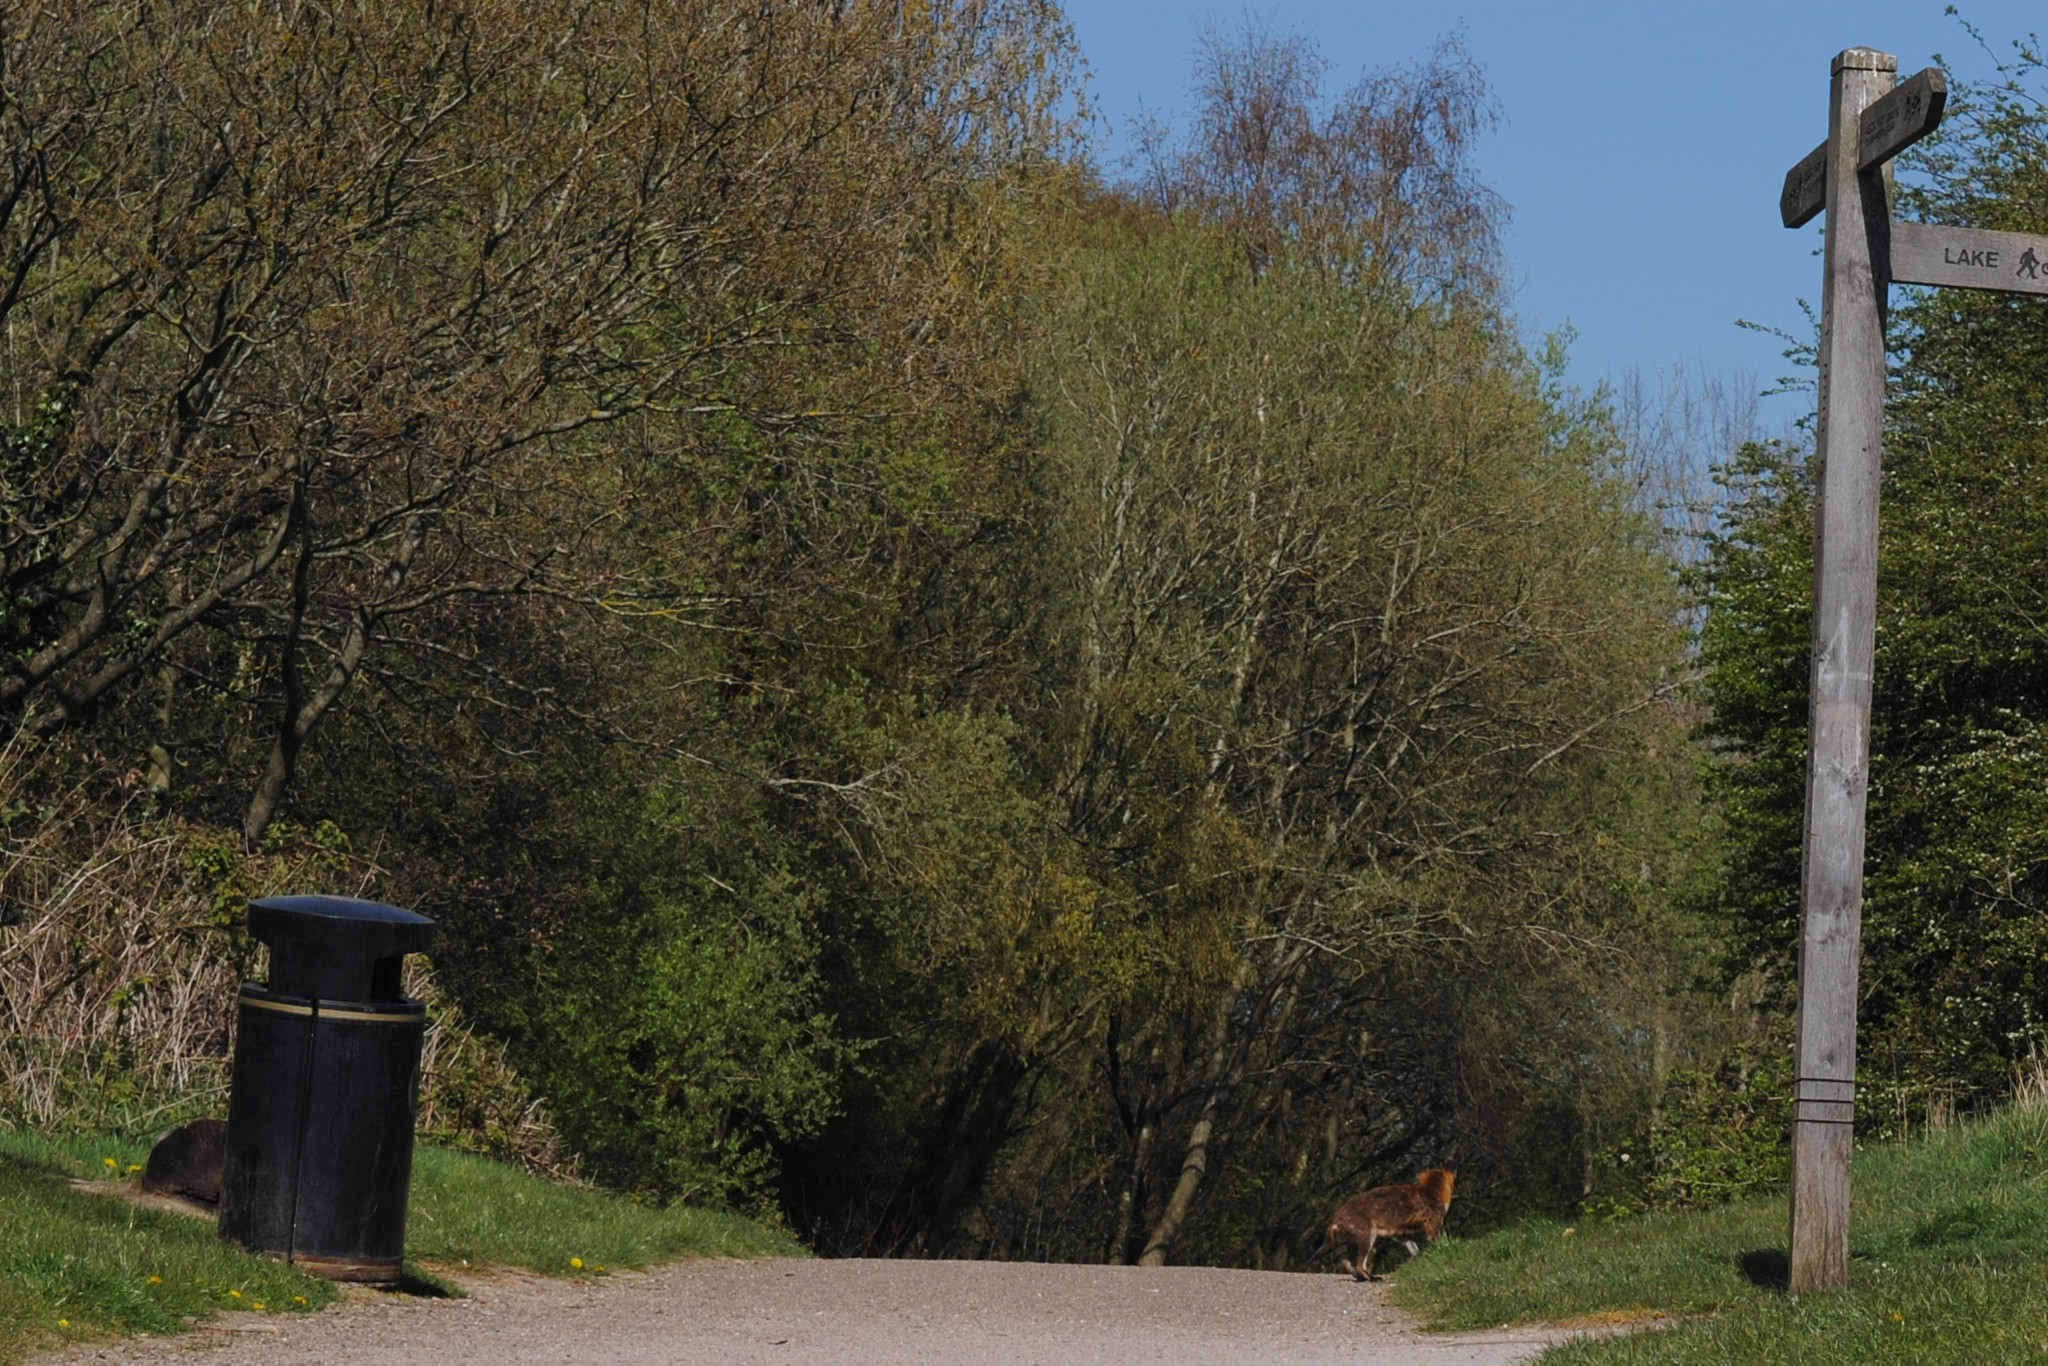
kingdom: Animalia
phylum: Chordata
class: Mammalia
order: Carnivora
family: Canidae
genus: Vulpes
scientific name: Vulpes vulpes
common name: Red fox
